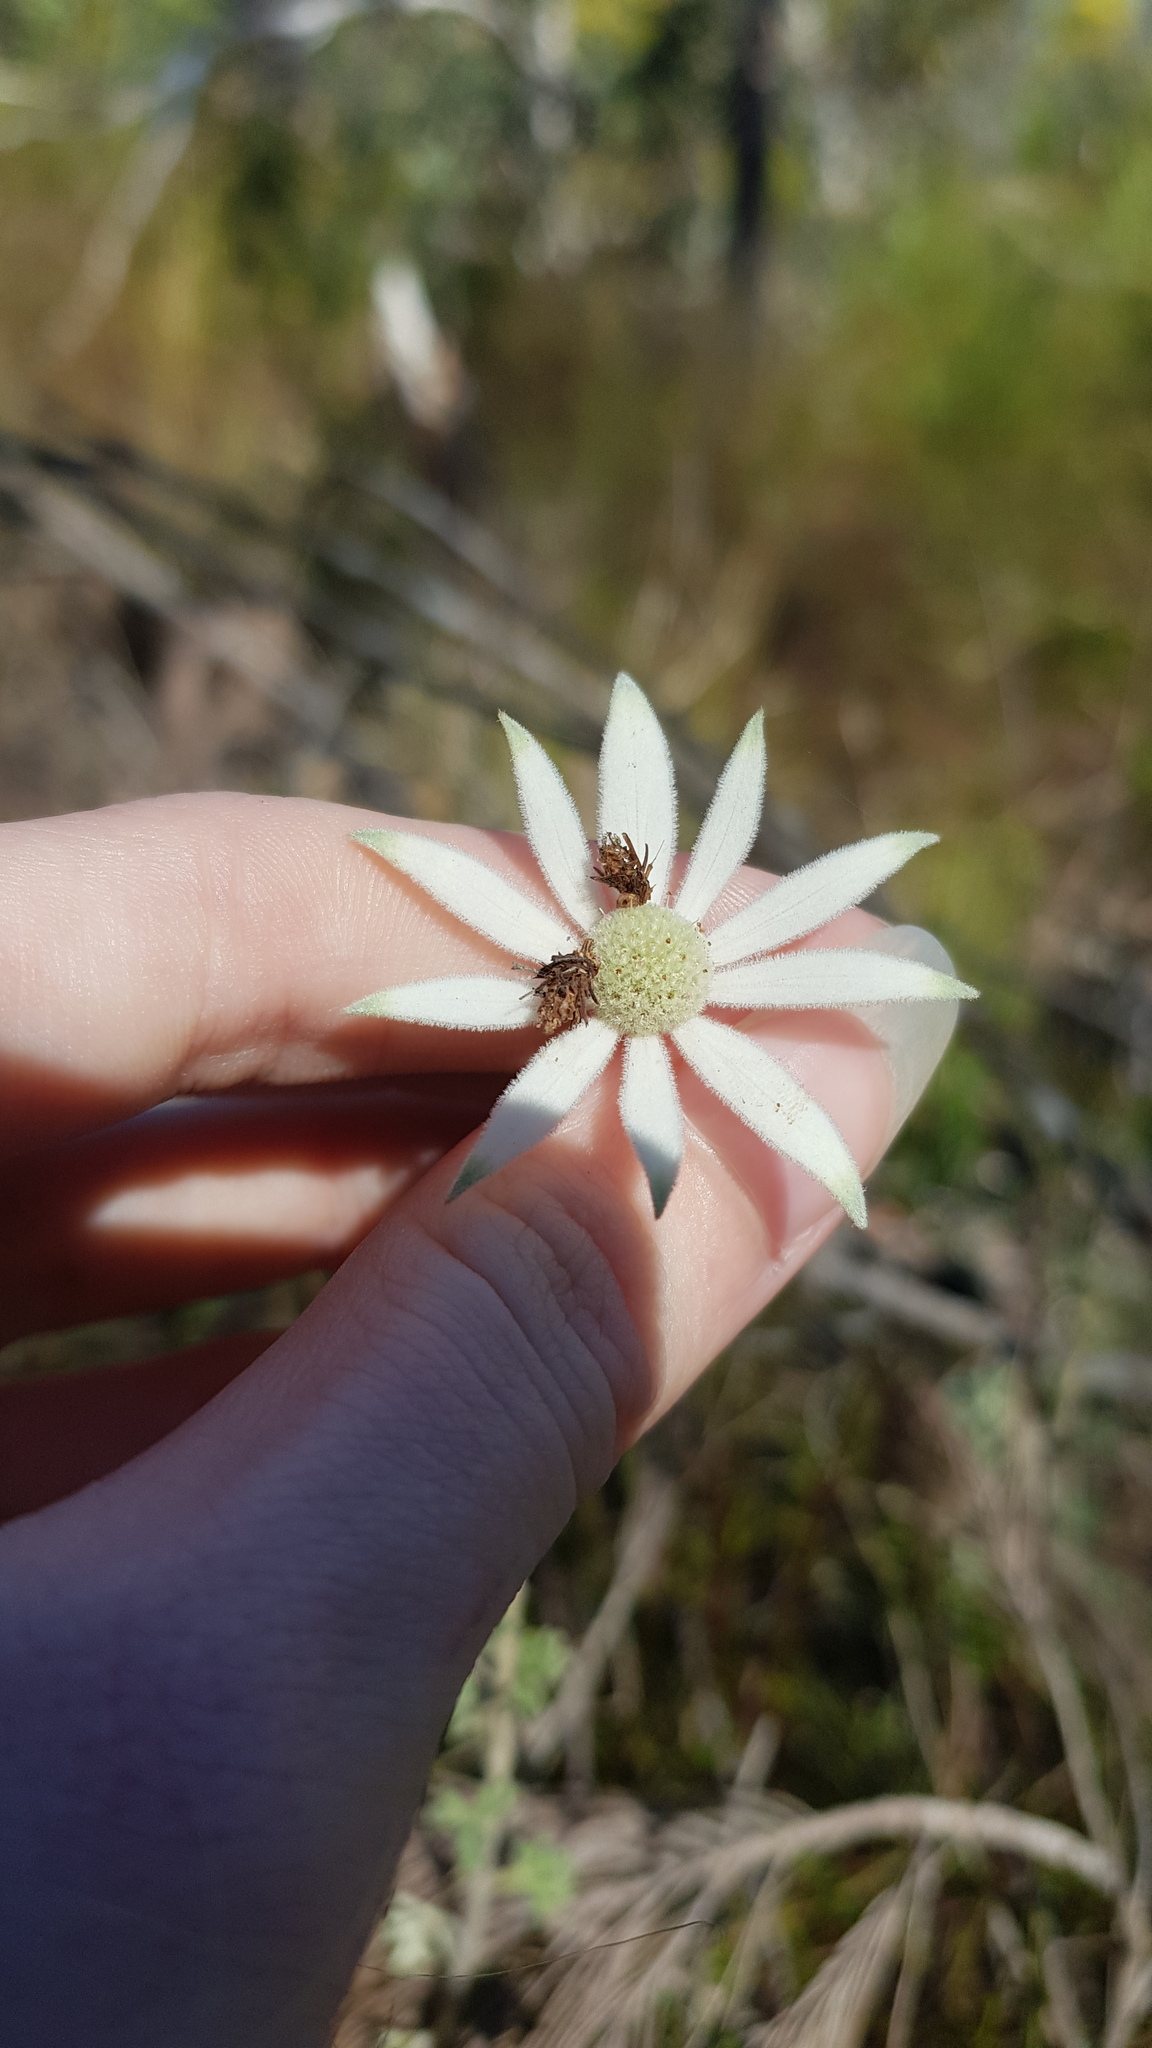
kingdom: Plantae
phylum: Tracheophyta
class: Magnoliopsida
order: Apiales
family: Apiaceae
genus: Actinotus
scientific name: Actinotus helianthi
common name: Flannel-flower
